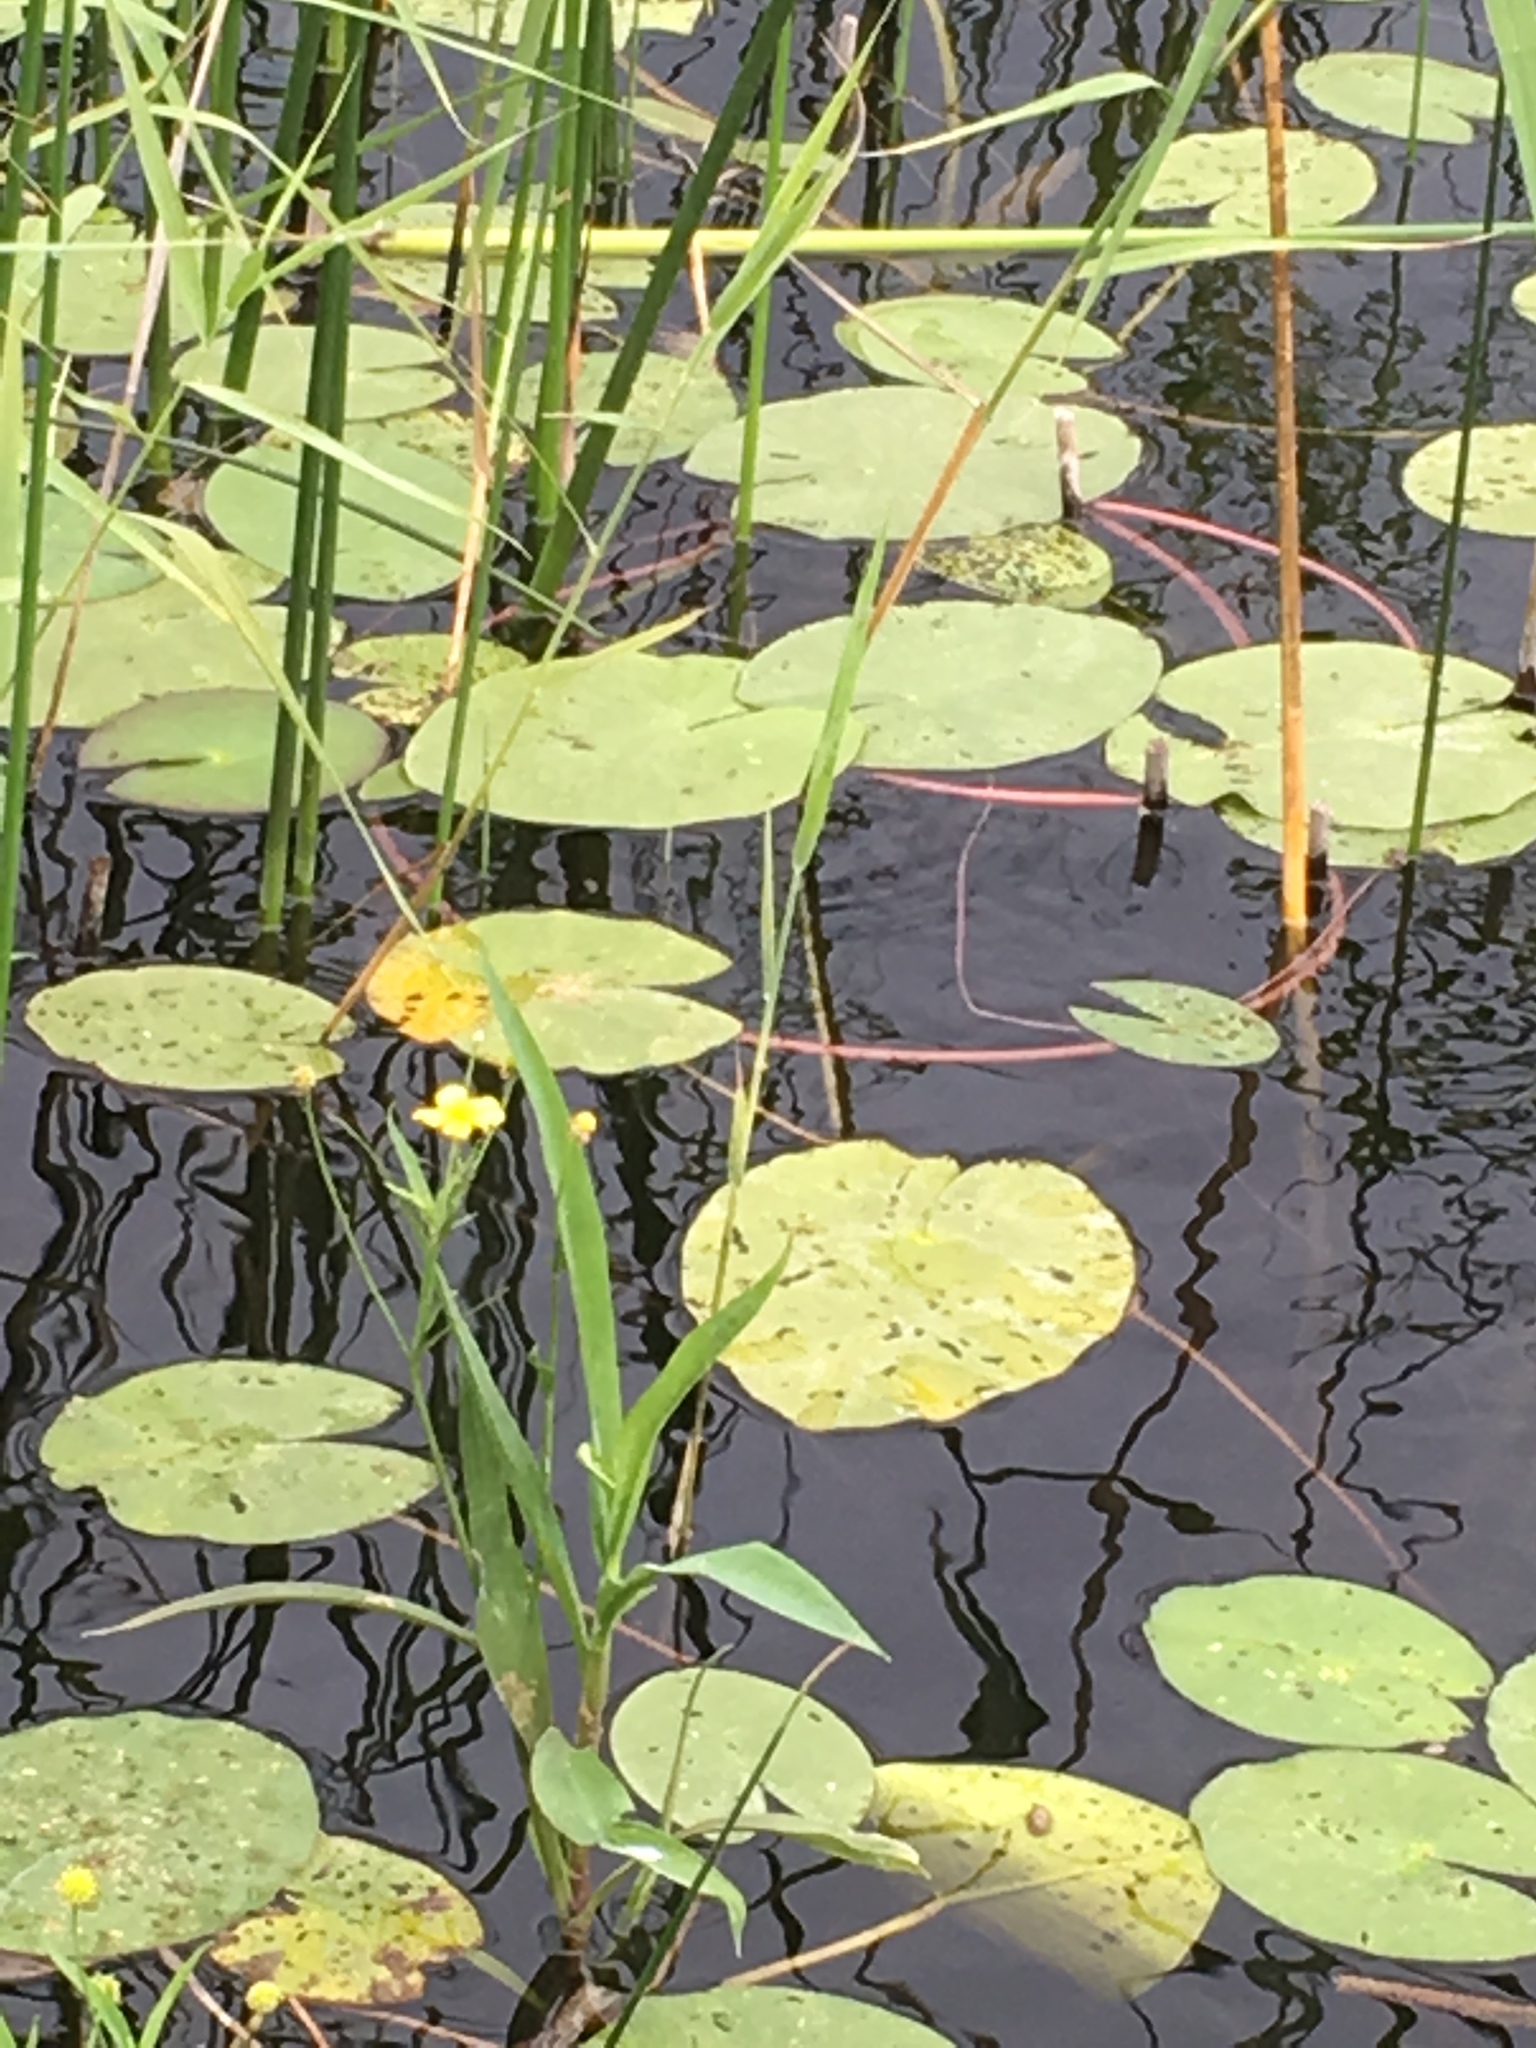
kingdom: Plantae
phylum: Tracheophyta
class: Magnoliopsida
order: Ranunculales
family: Ranunculaceae
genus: Ranunculus
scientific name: Ranunculus lingua
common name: Greater spearwort
